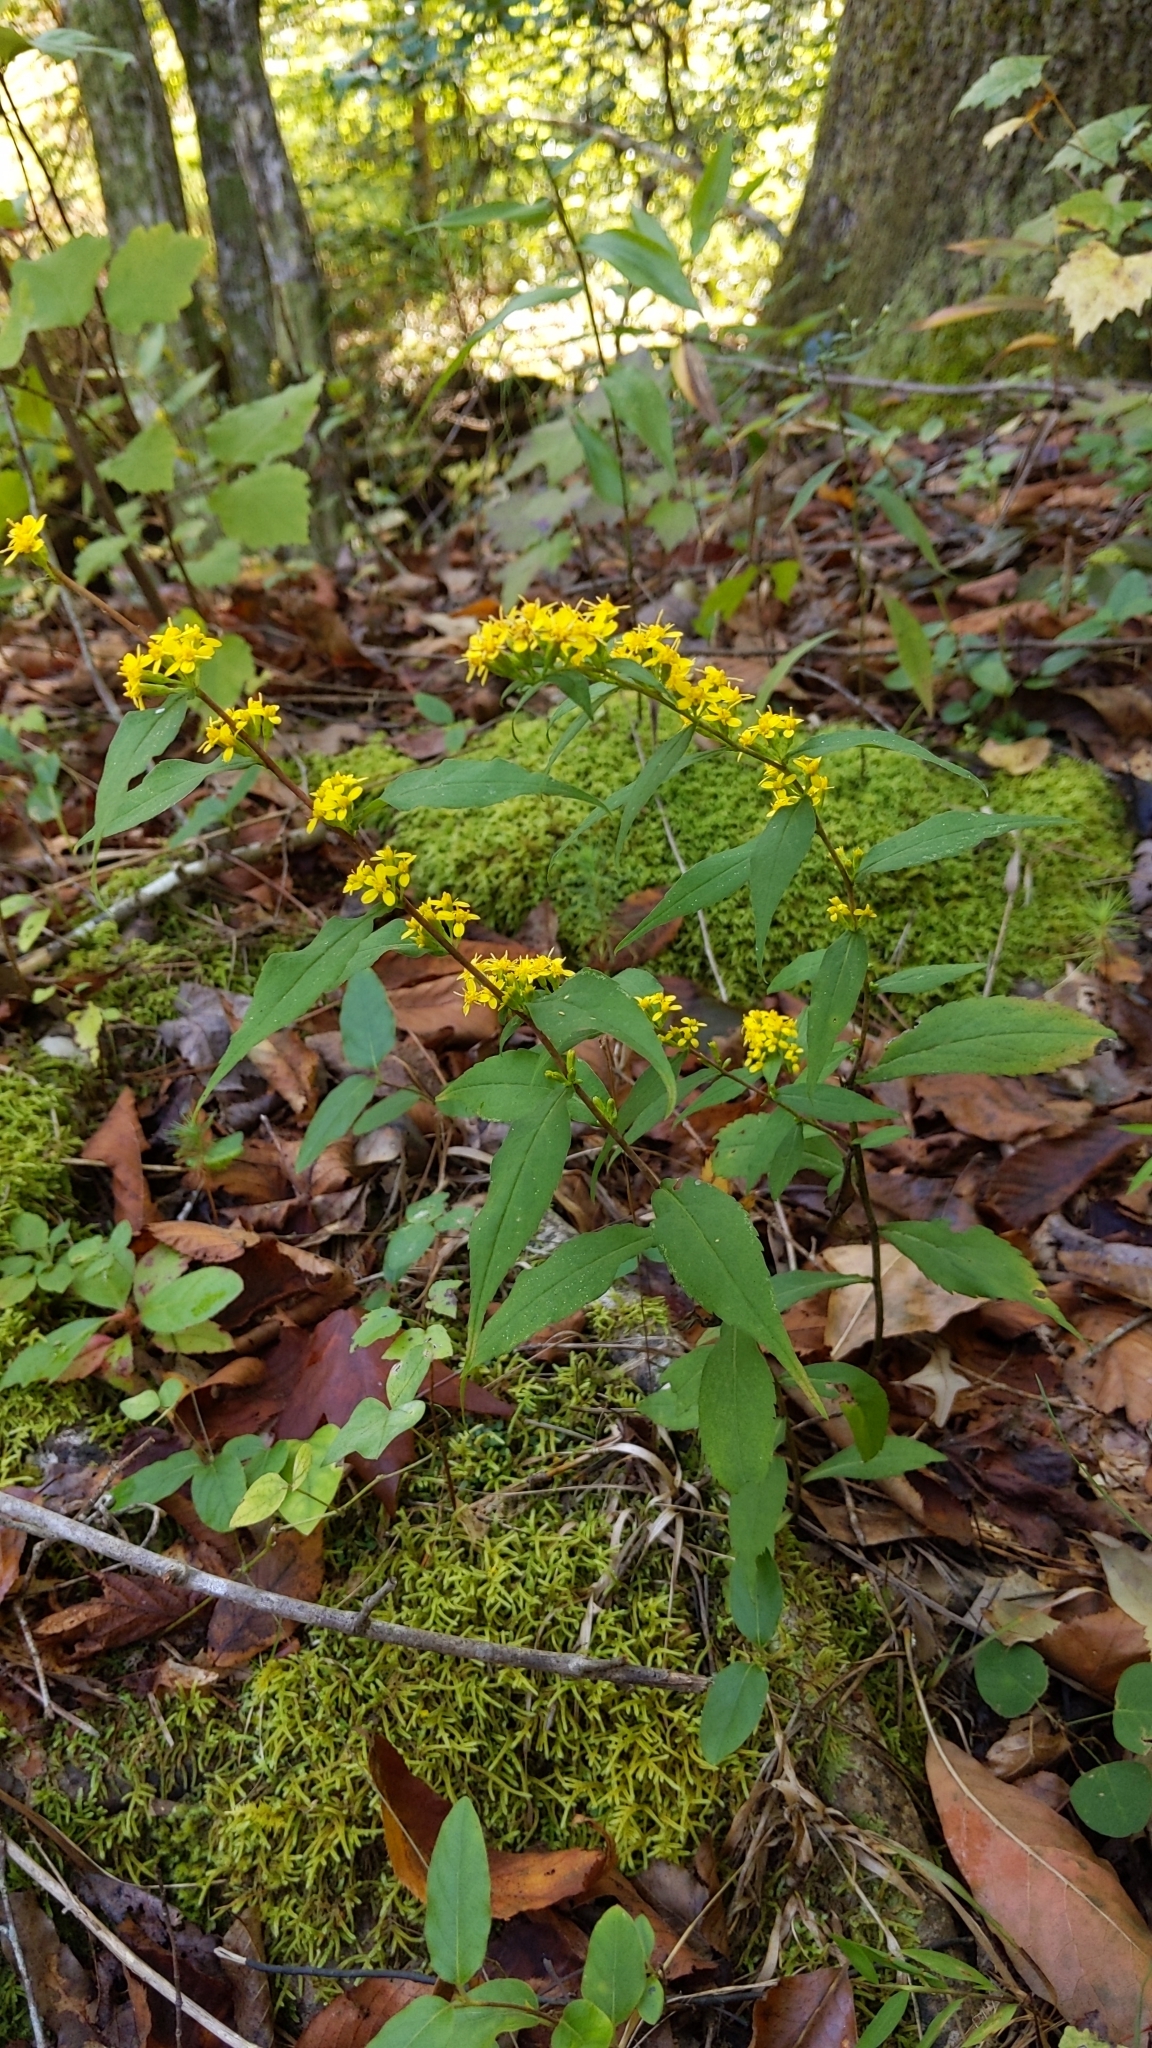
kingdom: Plantae
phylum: Tracheophyta
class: Magnoliopsida
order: Asterales
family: Asteraceae
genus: Solidago
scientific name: Solidago caesia
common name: Woodland goldenrod
